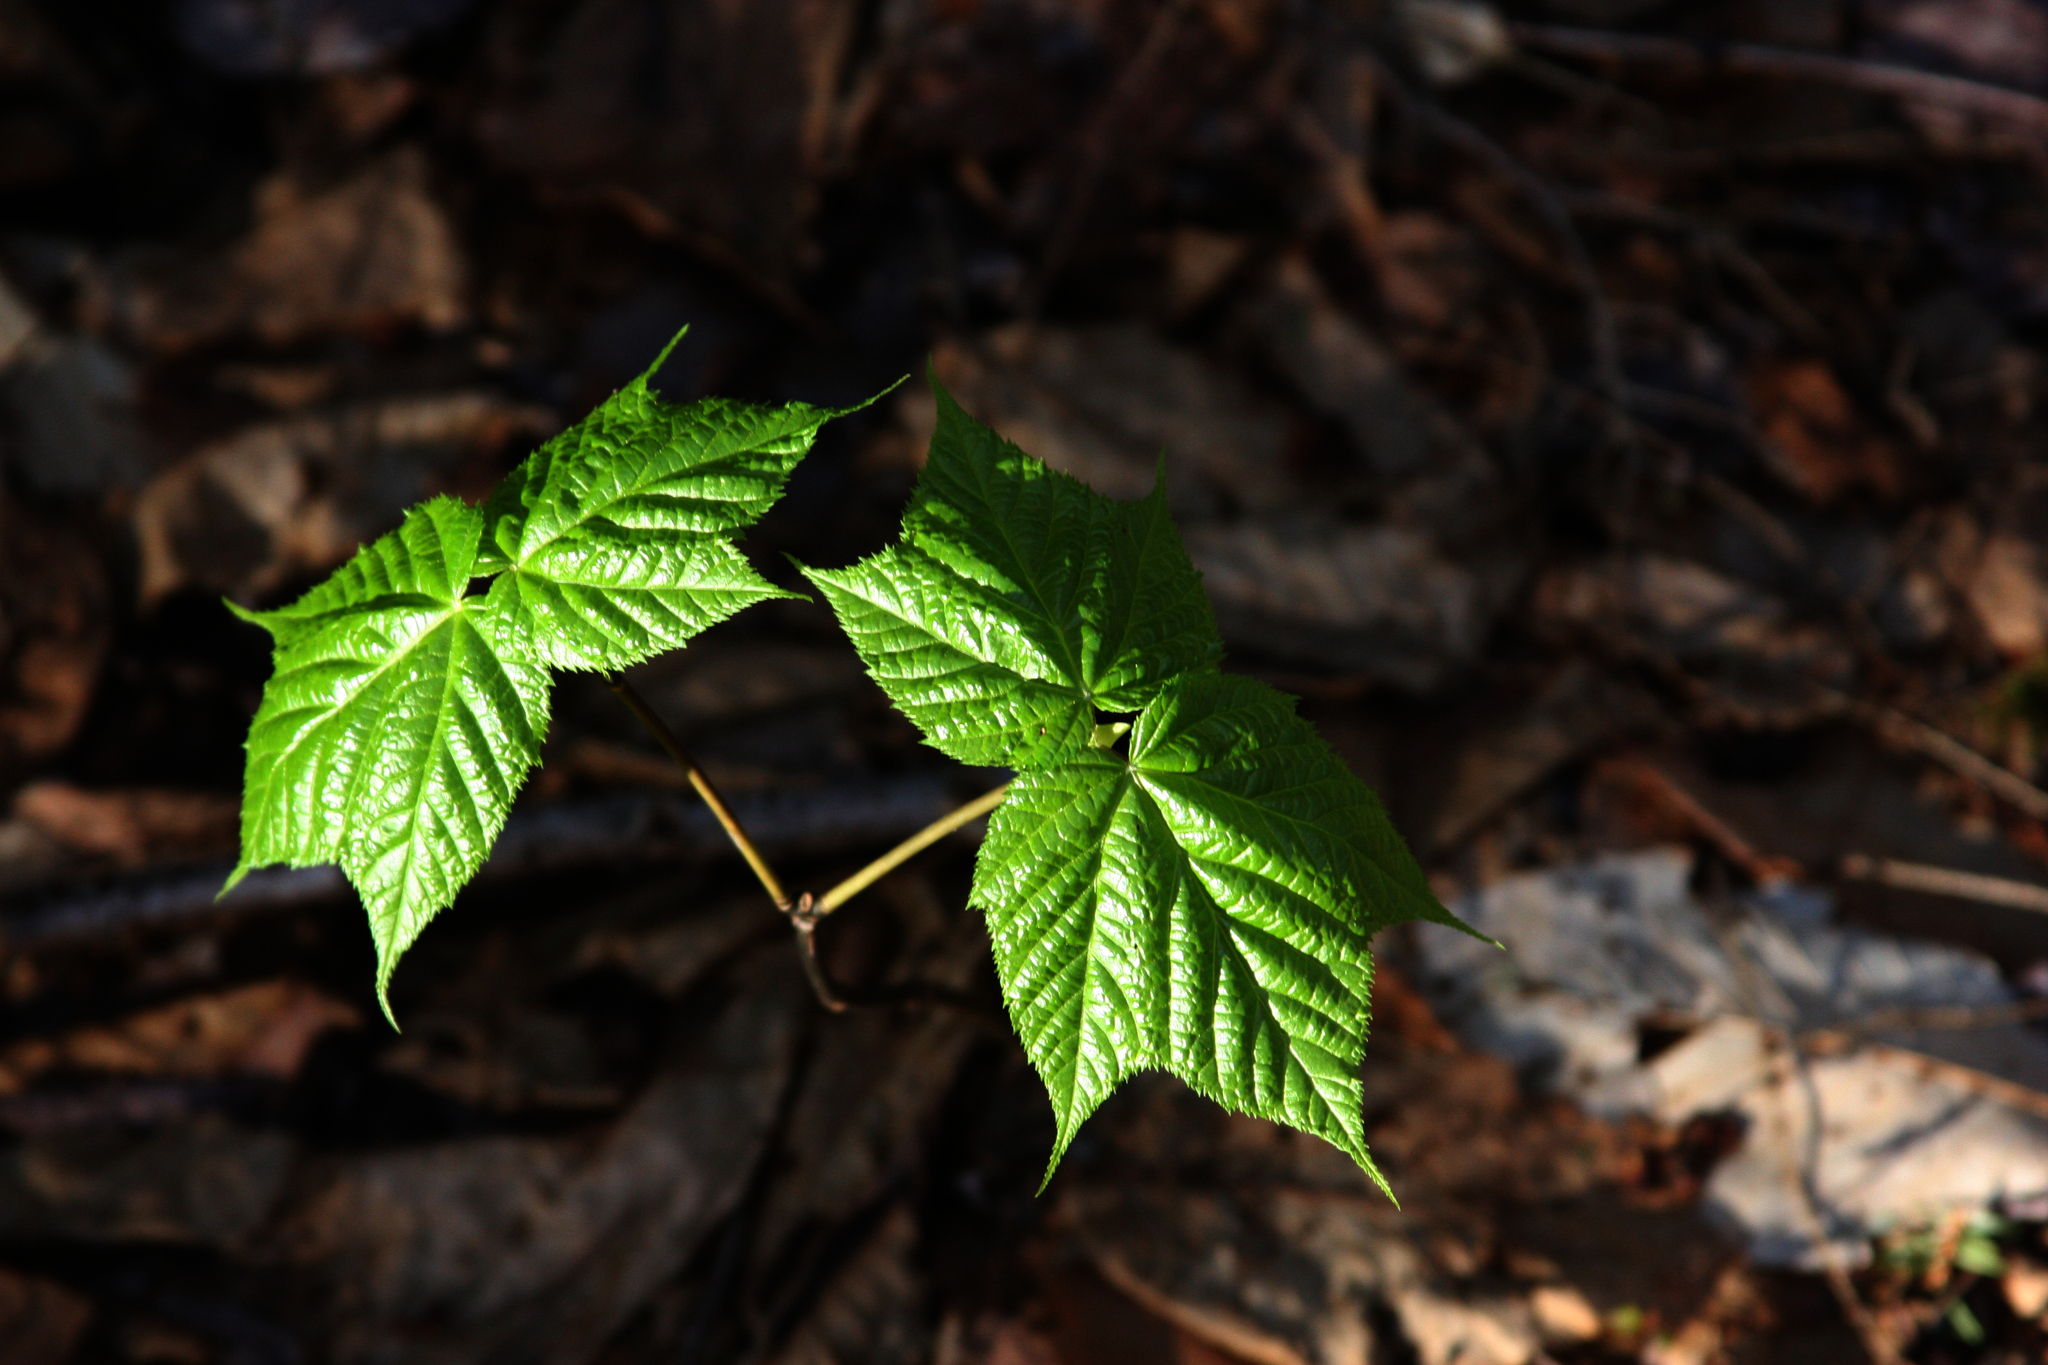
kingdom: Plantae
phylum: Tracheophyta
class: Magnoliopsida
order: Sapindales
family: Sapindaceae
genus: Acer
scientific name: Acer pensylvanicum
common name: Moosewood
